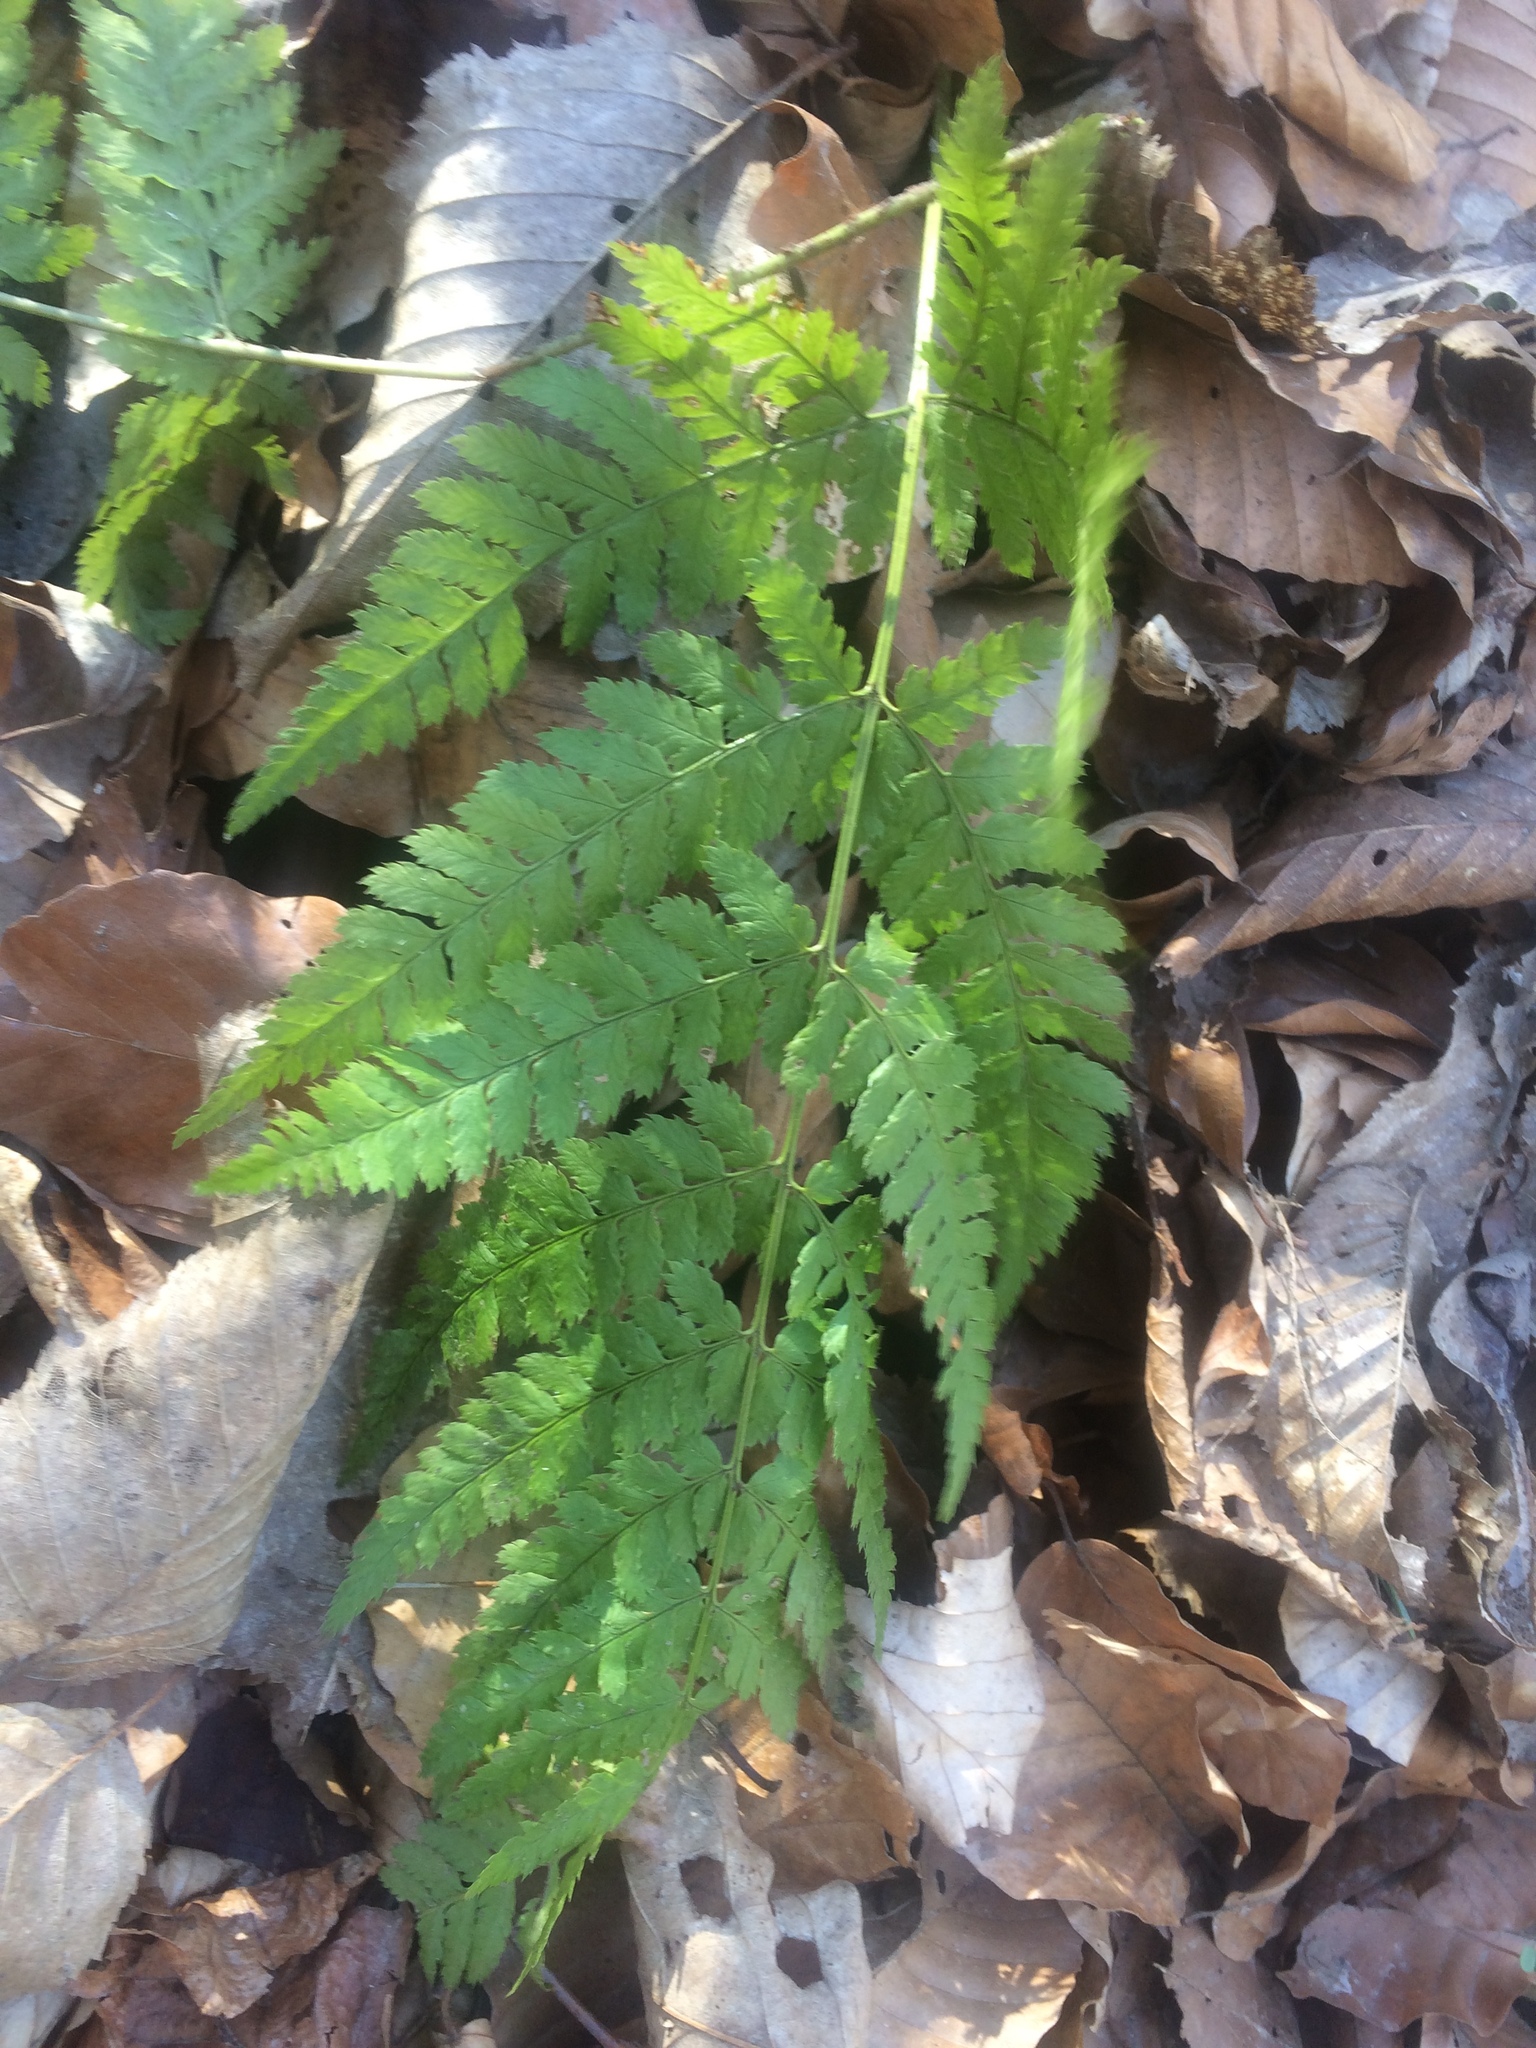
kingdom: Plantae
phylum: Tracheophyta
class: Polypodiopsida
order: Polypodiales
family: Dryopteridaceae
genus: Dryopteris
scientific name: Dryopteris carthusiana
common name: Narrow buckler-fern
